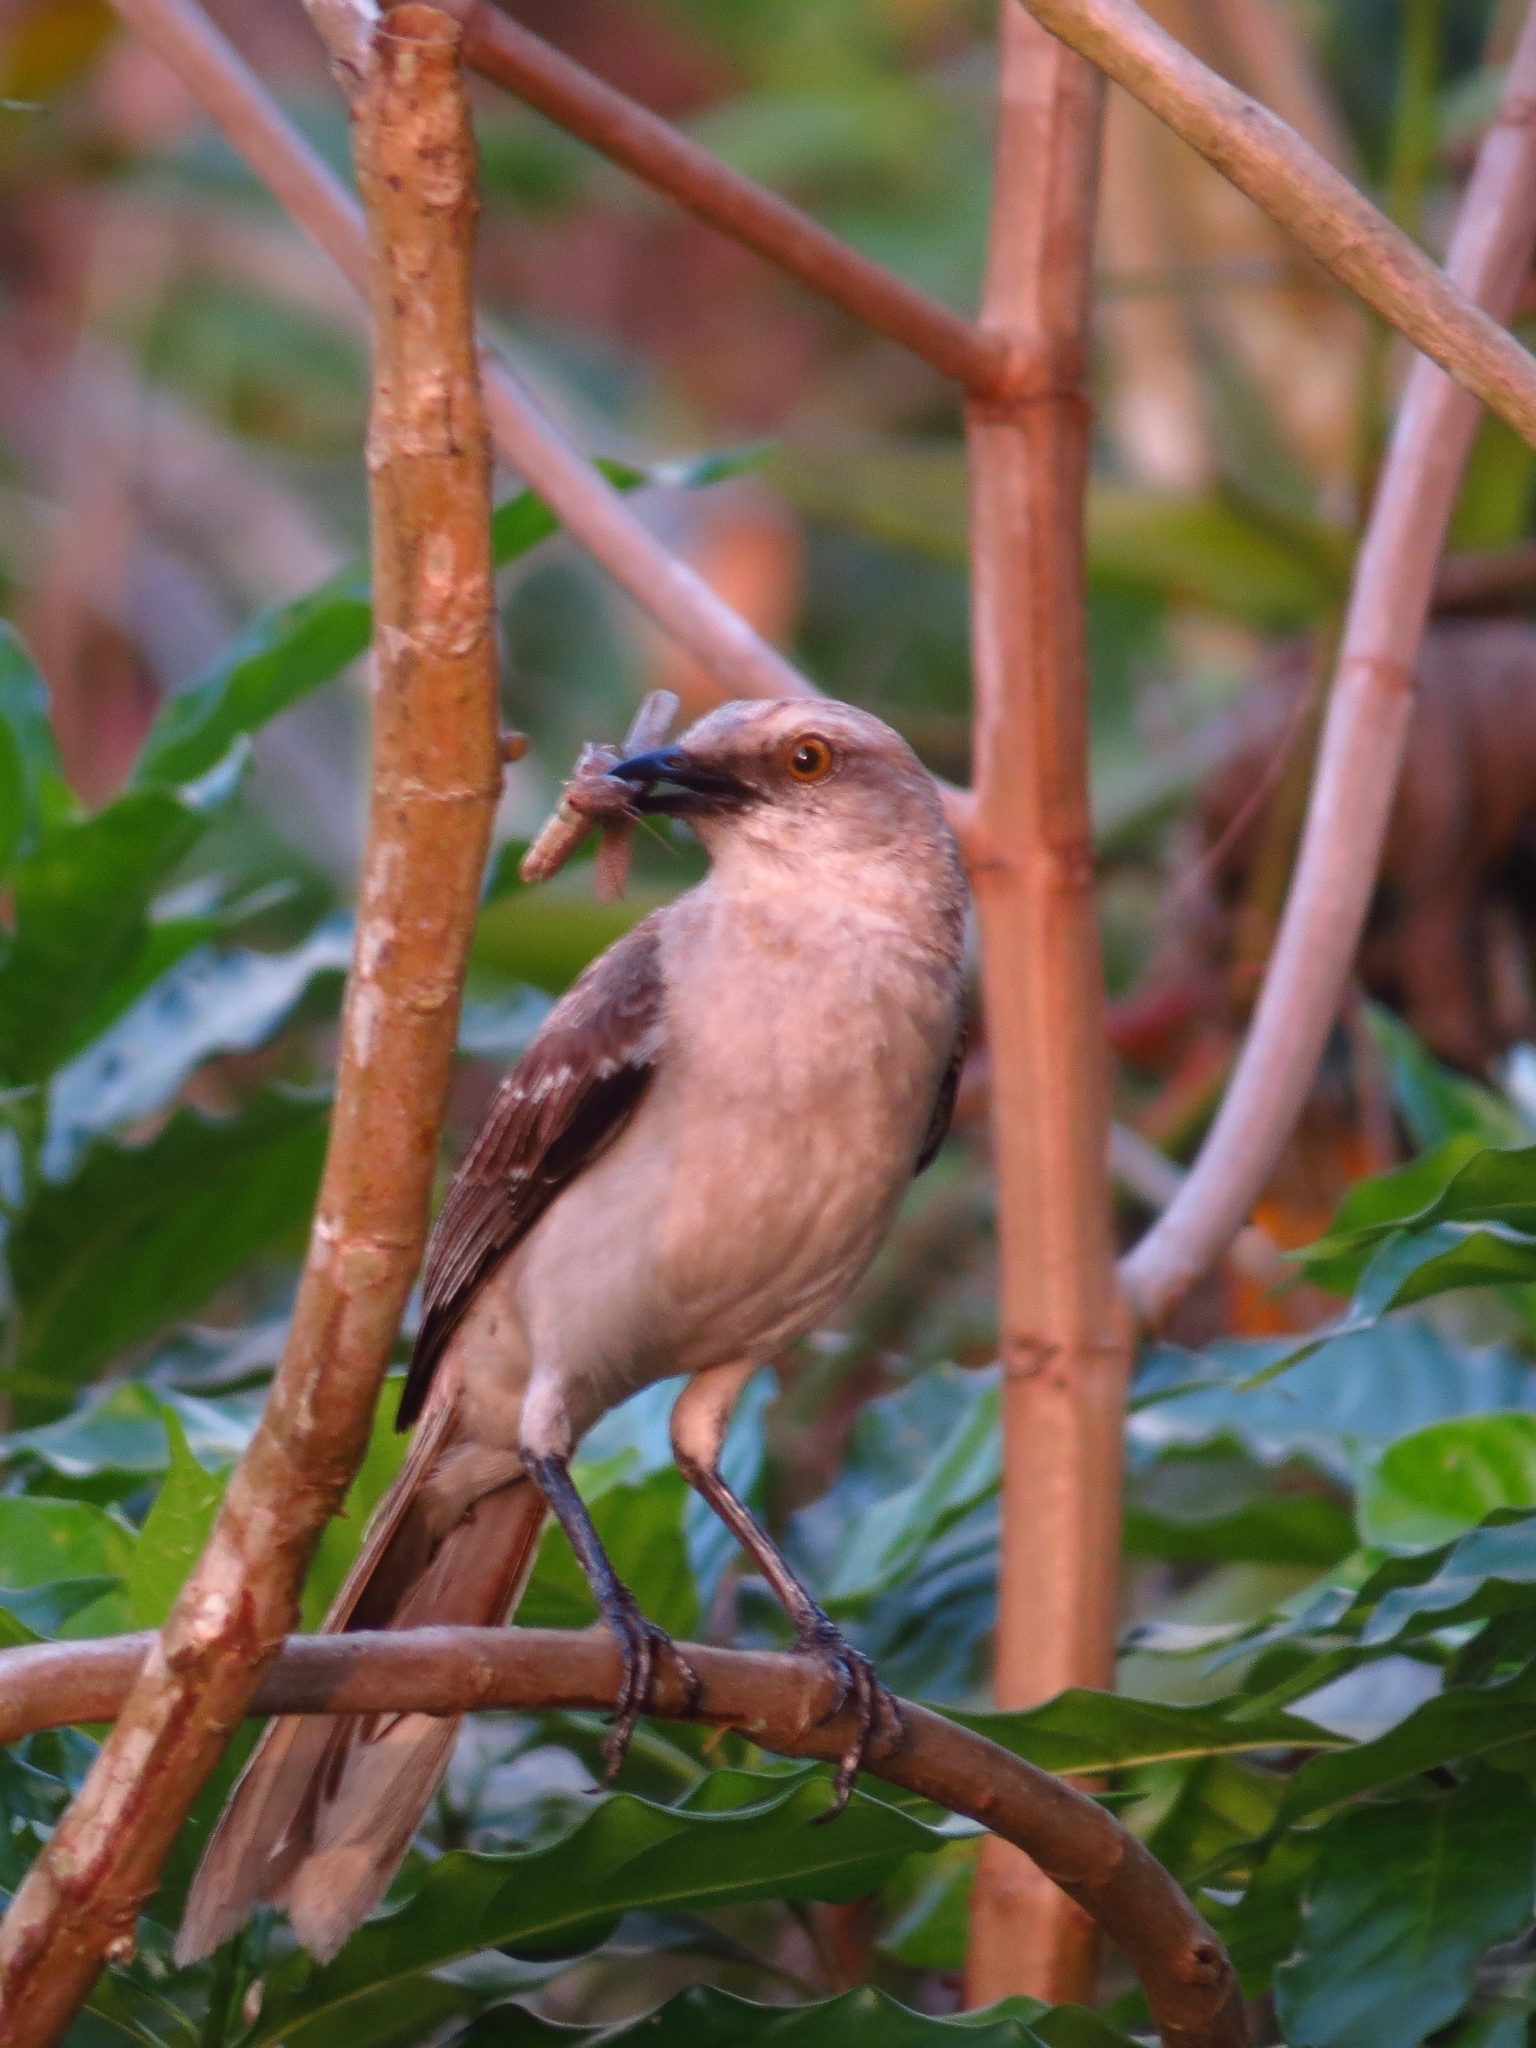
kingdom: Animalia
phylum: Chordata
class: Aves
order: Passeriformes
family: Mimidae
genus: Mimus
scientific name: Mimus gilvus
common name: Tropical mockingbird
